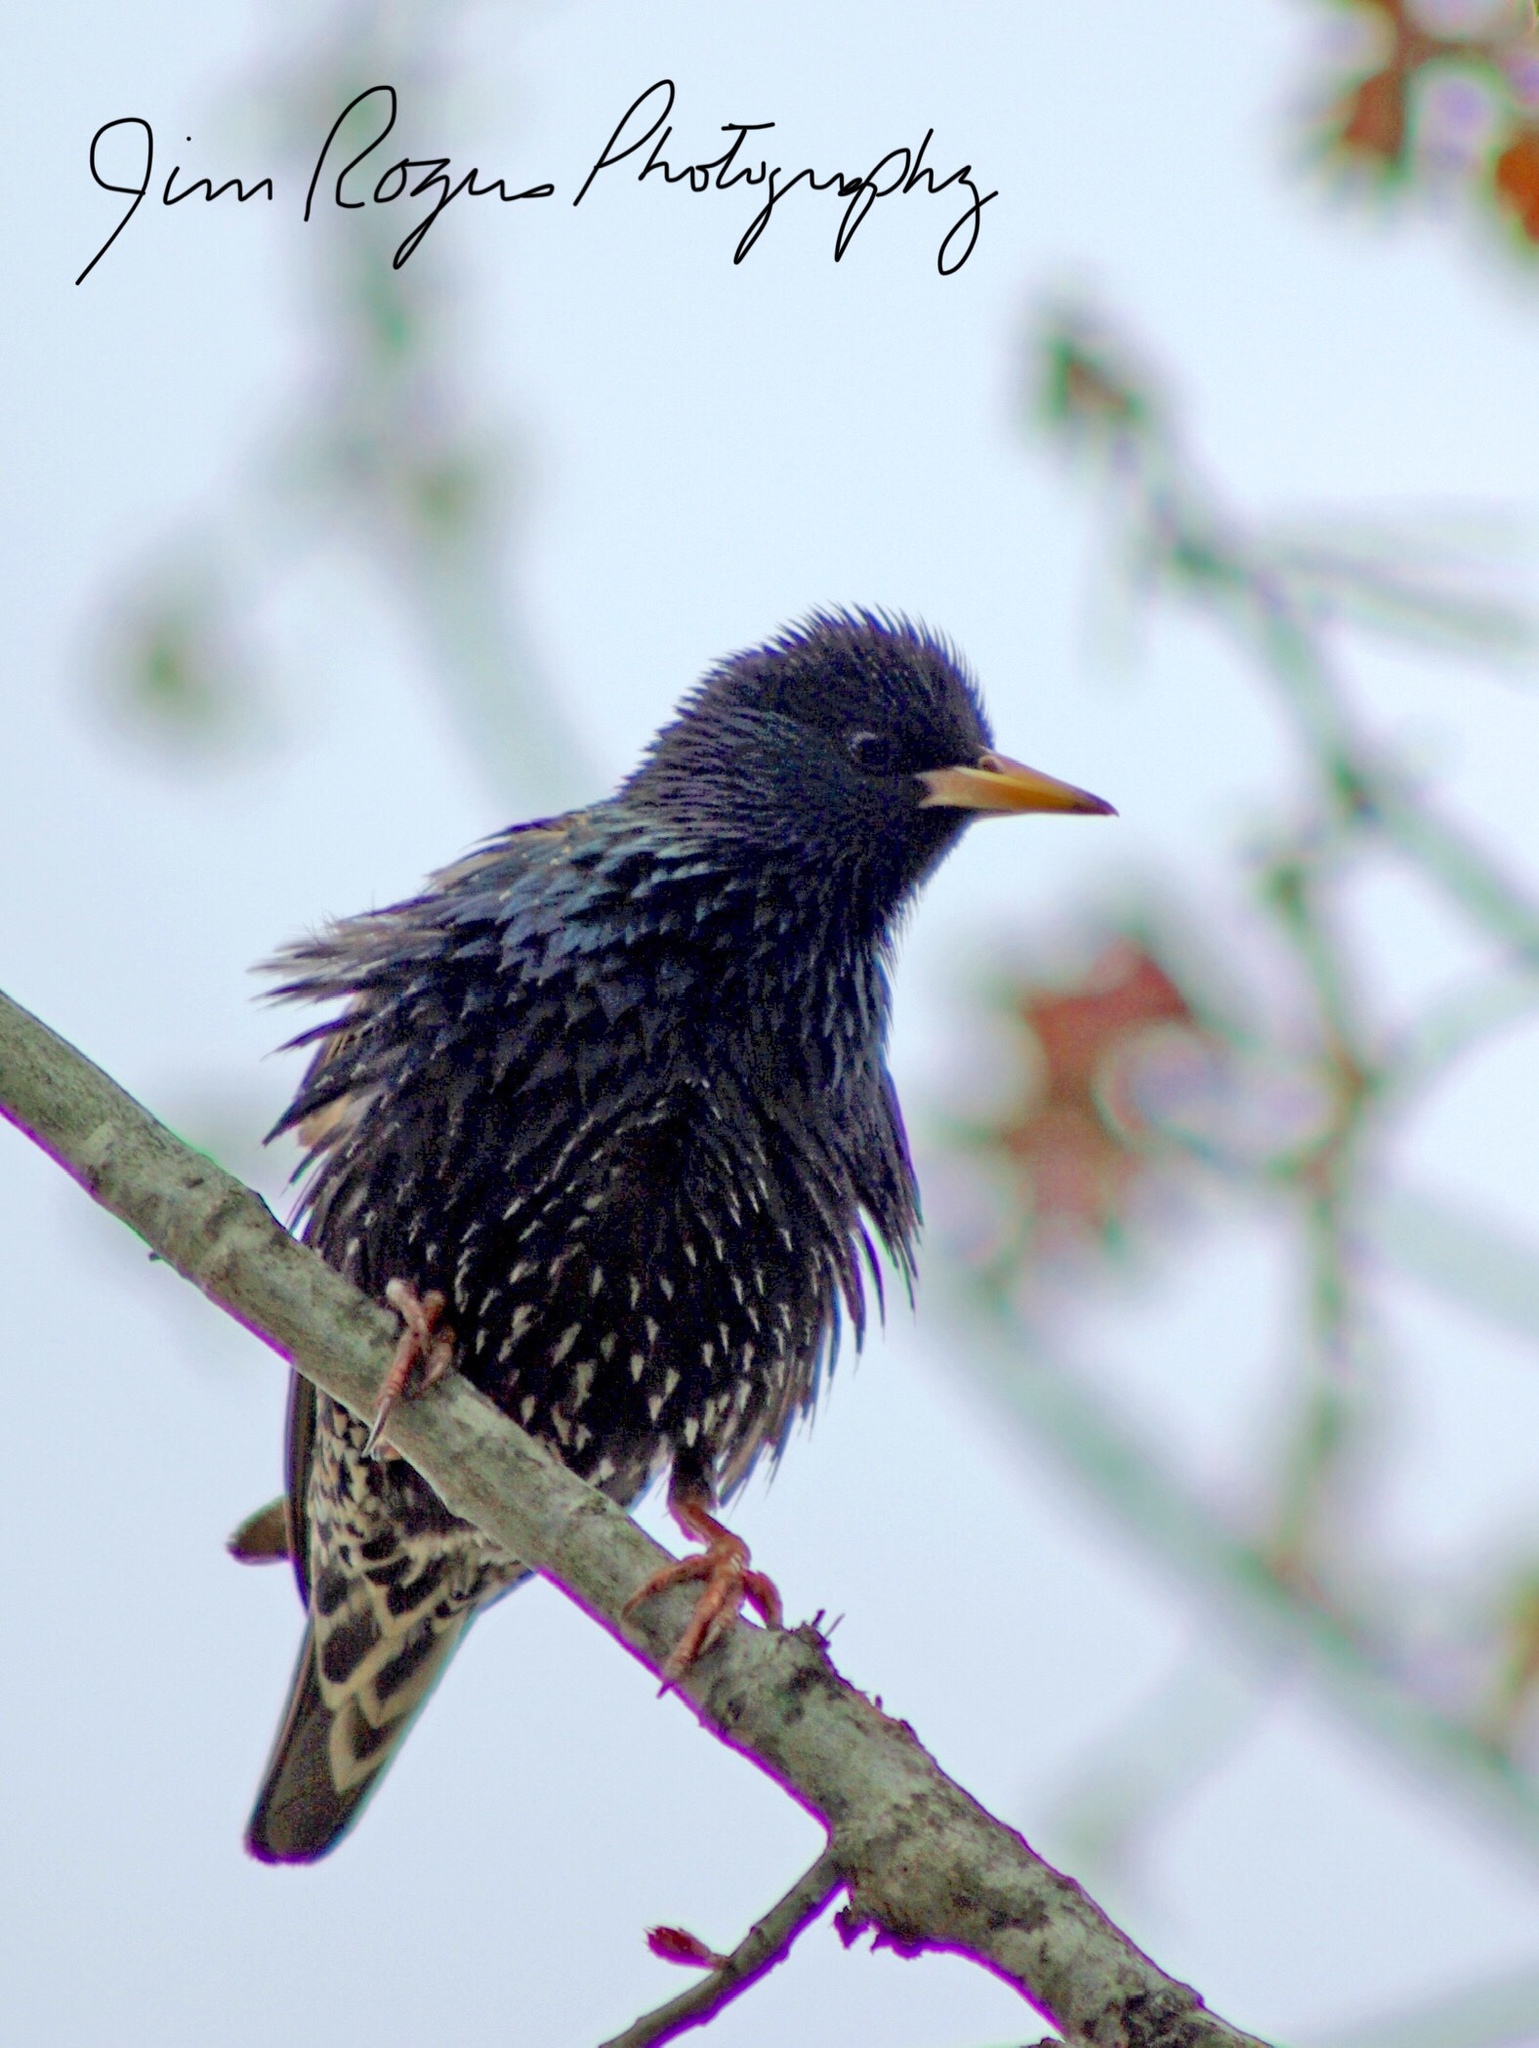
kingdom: Animalia
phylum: Chordata
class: Aves
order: Passeriformes
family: Sturnidae
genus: Sturnus
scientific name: Sturnus vulgaris
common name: Common starling
